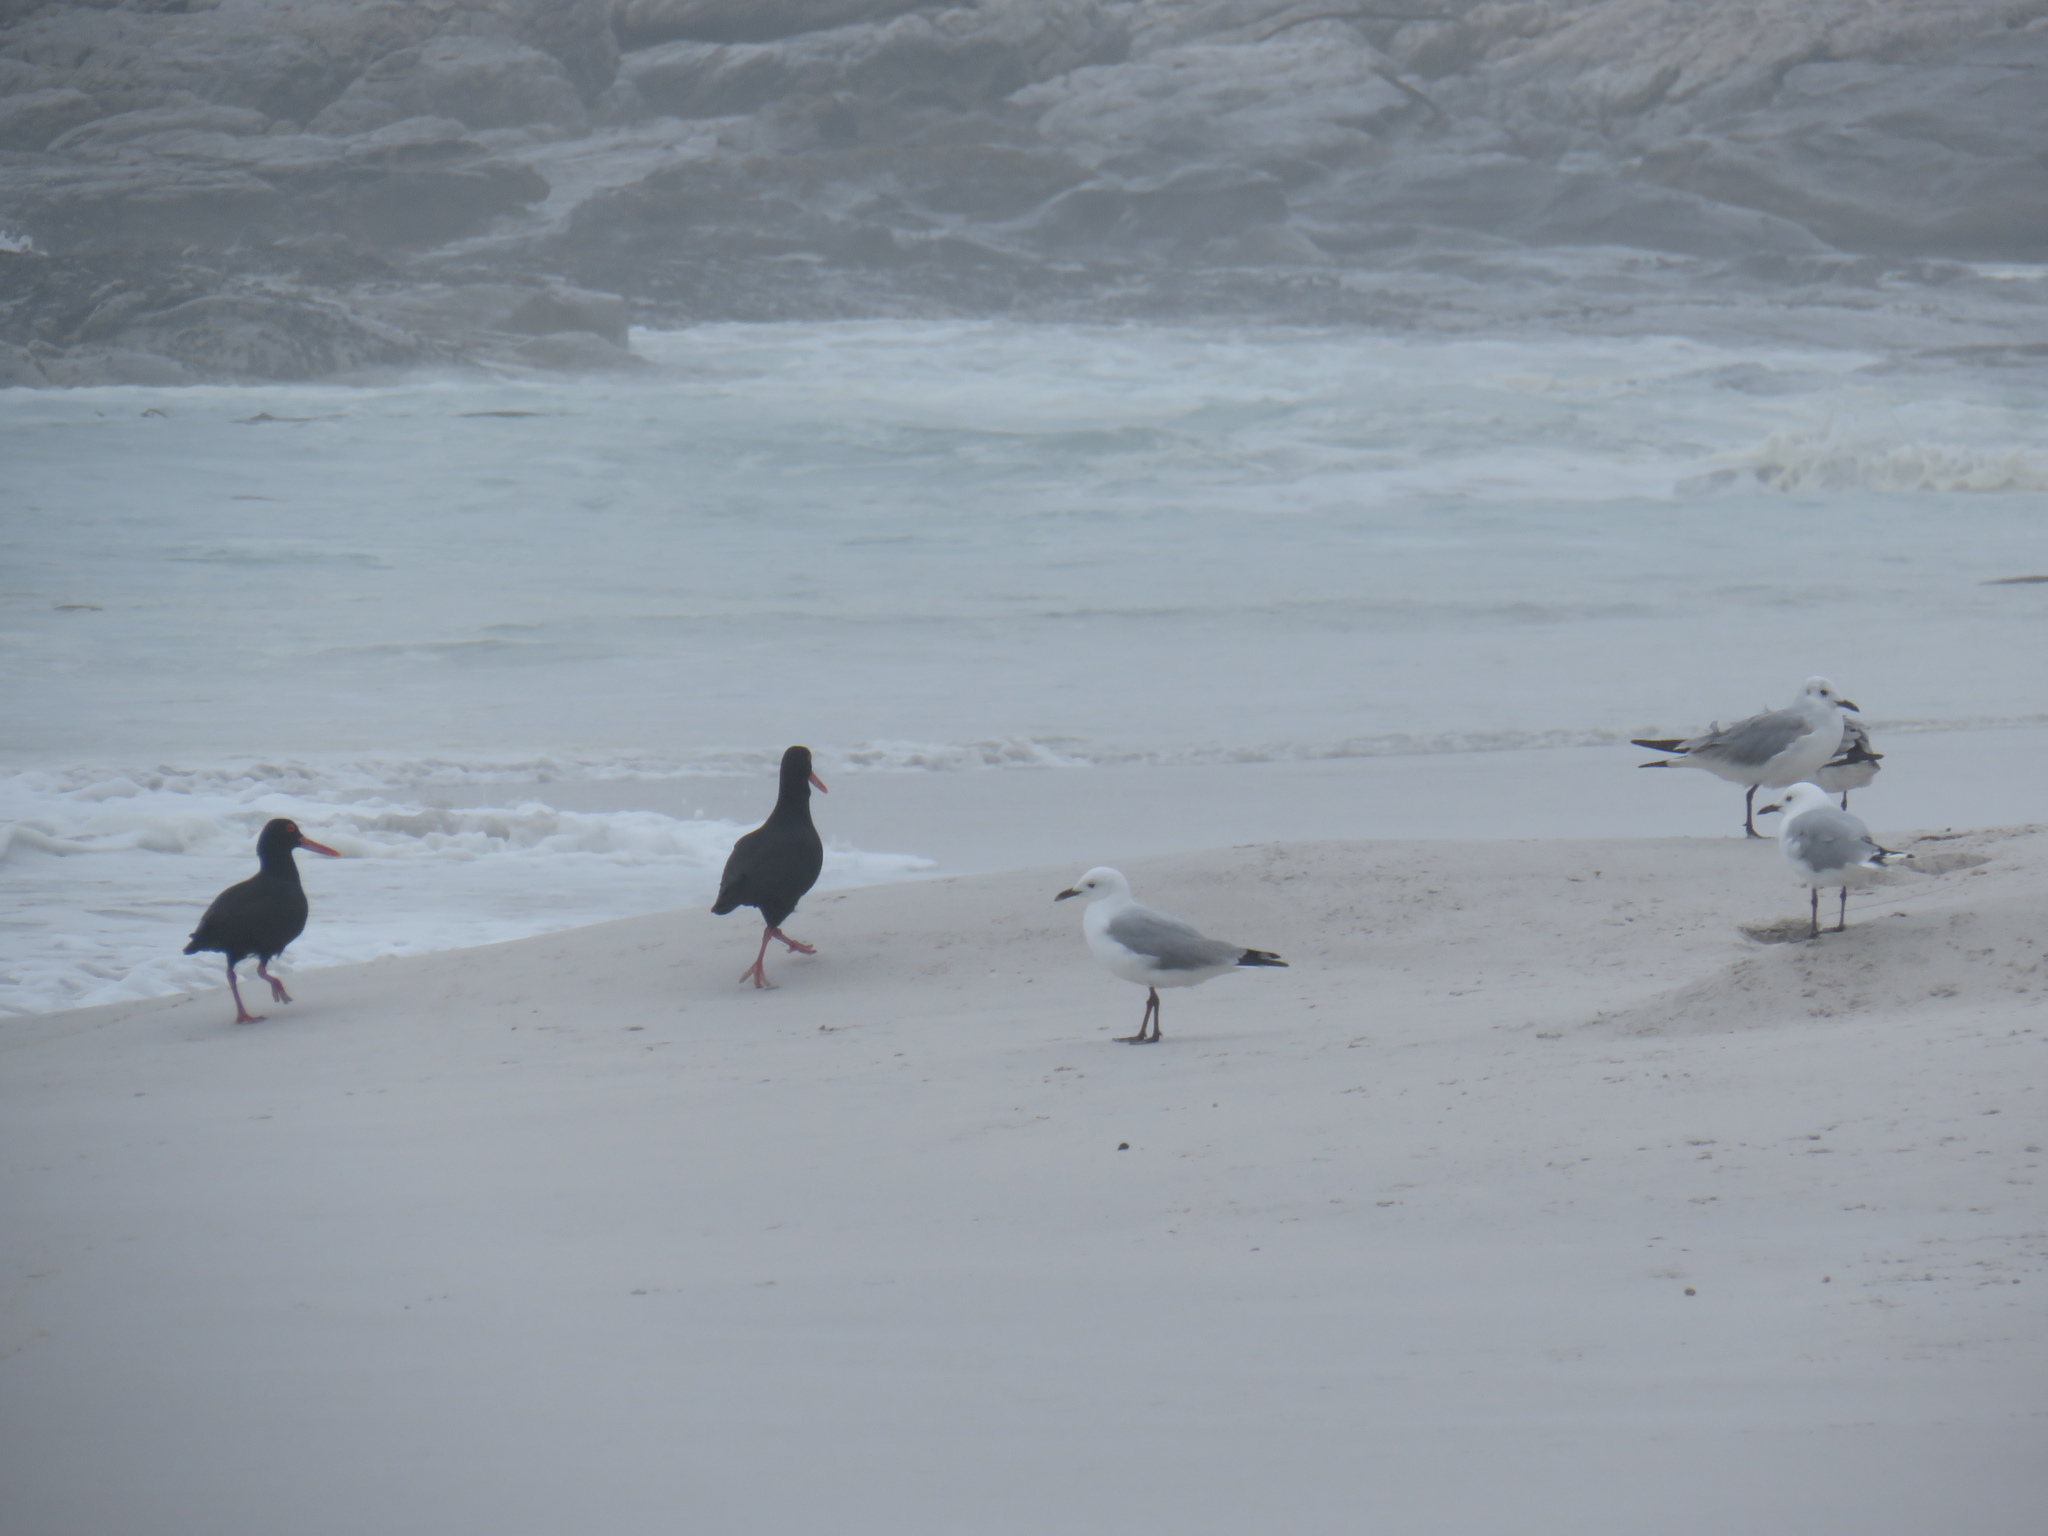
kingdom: Animalia
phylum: Chordata
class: Aves
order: Charadriiformes
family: Laridae
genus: Chroicocephalus
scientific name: Chroicocephalus hartlaubii
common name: Hartlaub's gull
